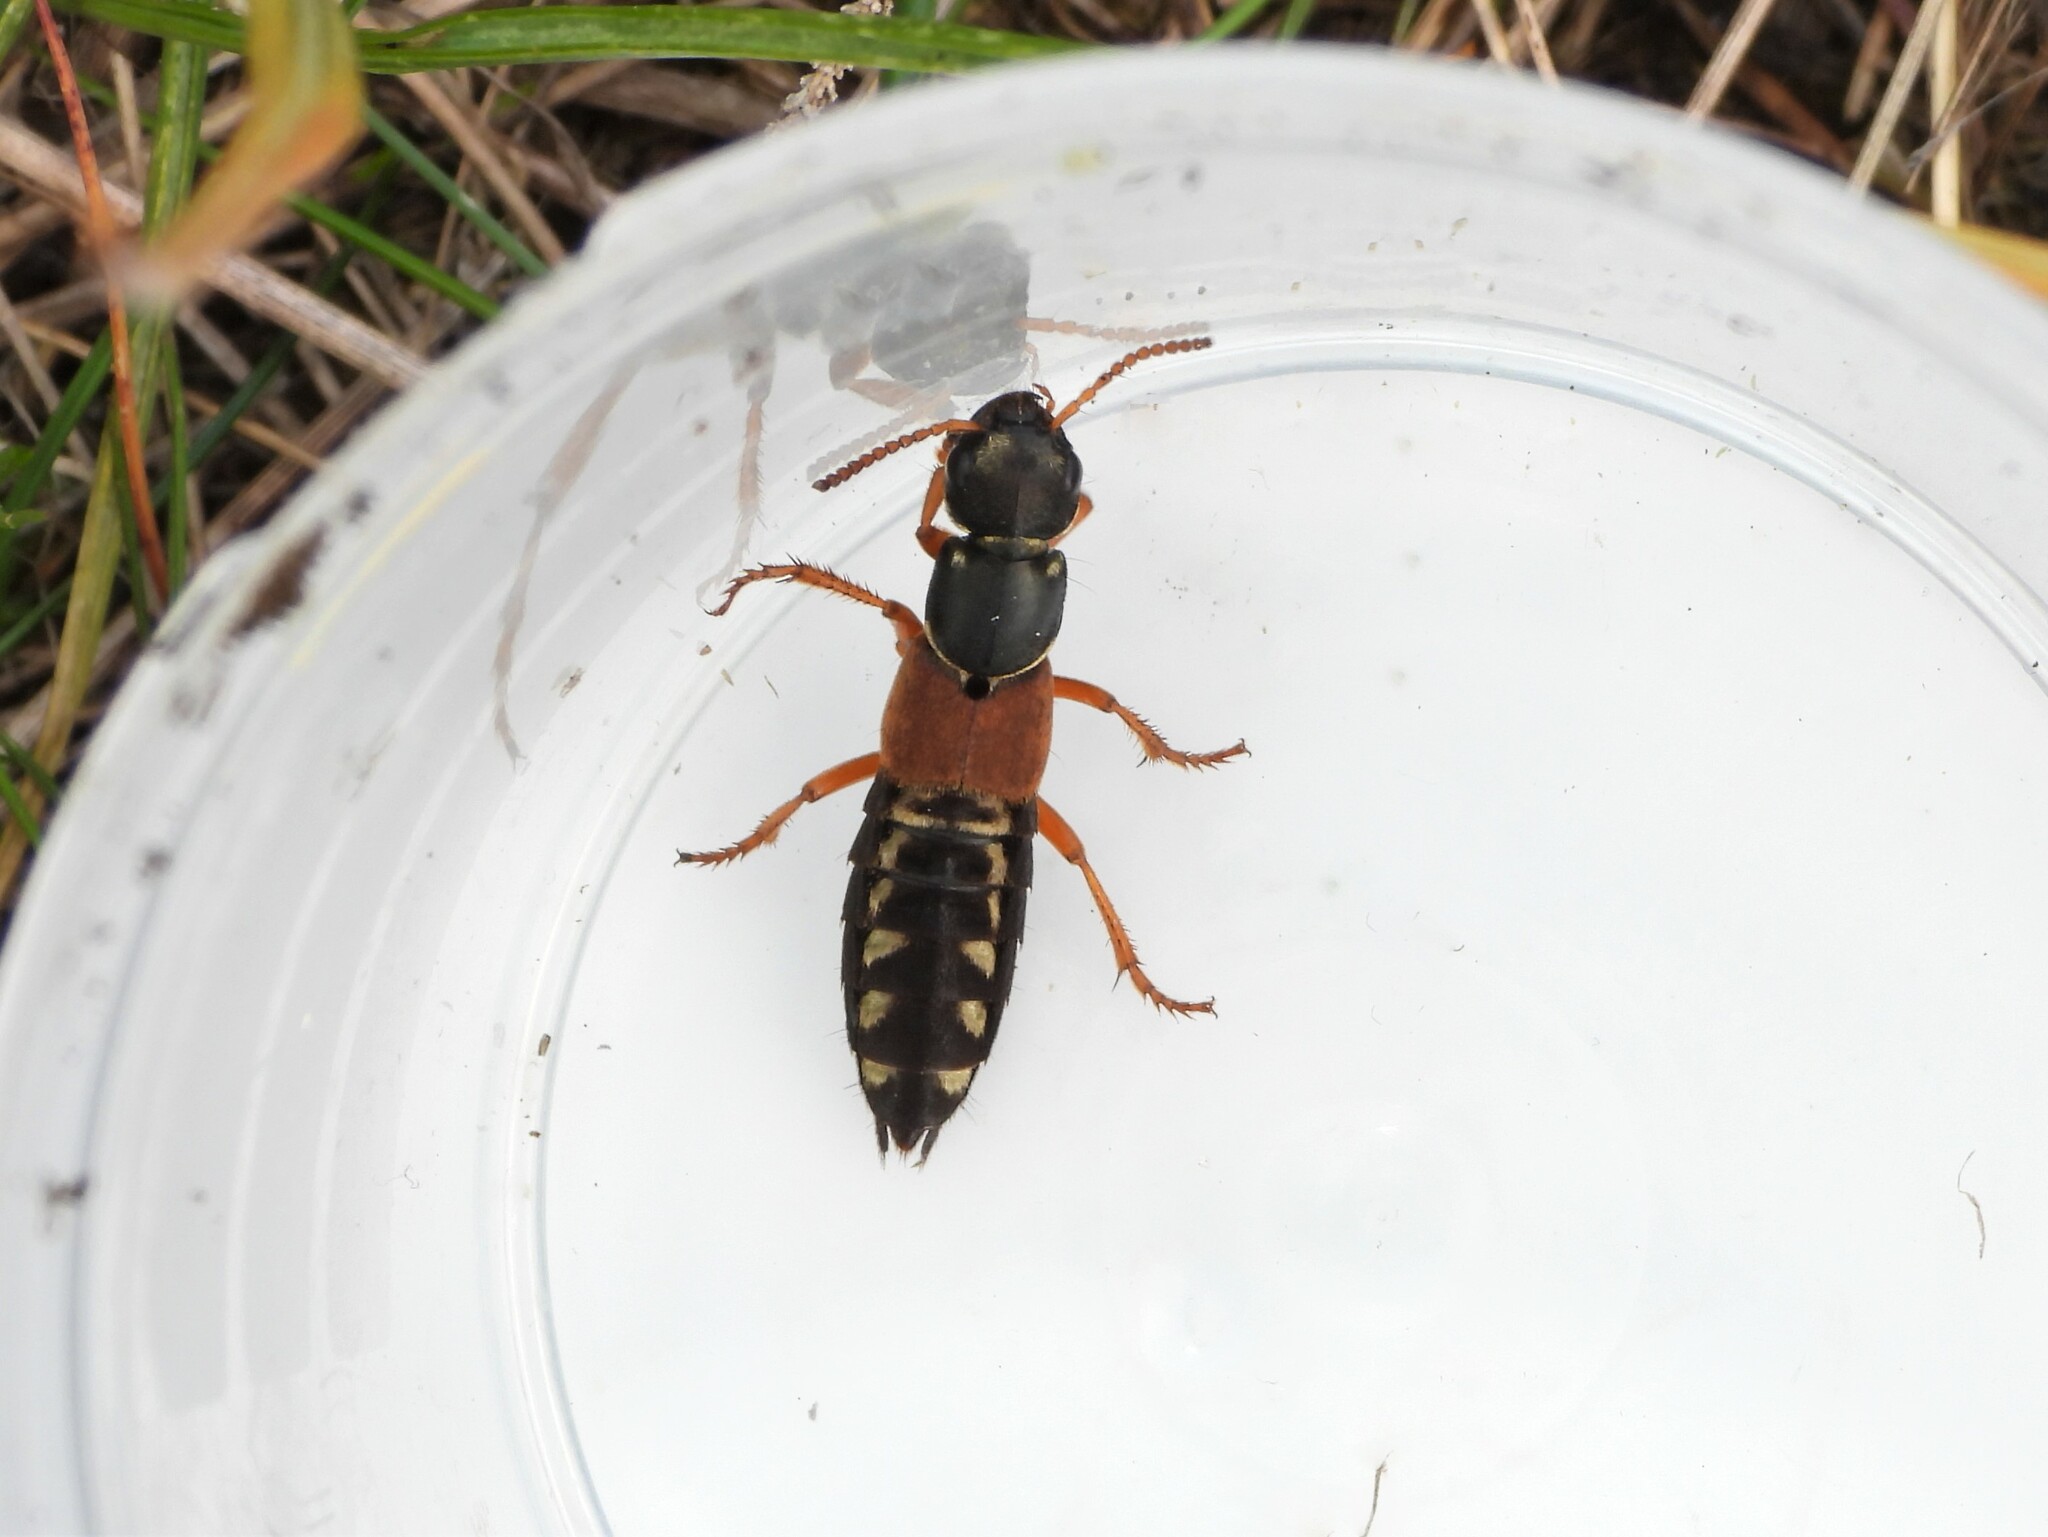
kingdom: Animalia
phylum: Arthropoda
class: Insecta
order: Coleoptera
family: Staphylinidae
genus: Staphylinus
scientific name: Staphylinus caesareus
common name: Staph beetle
